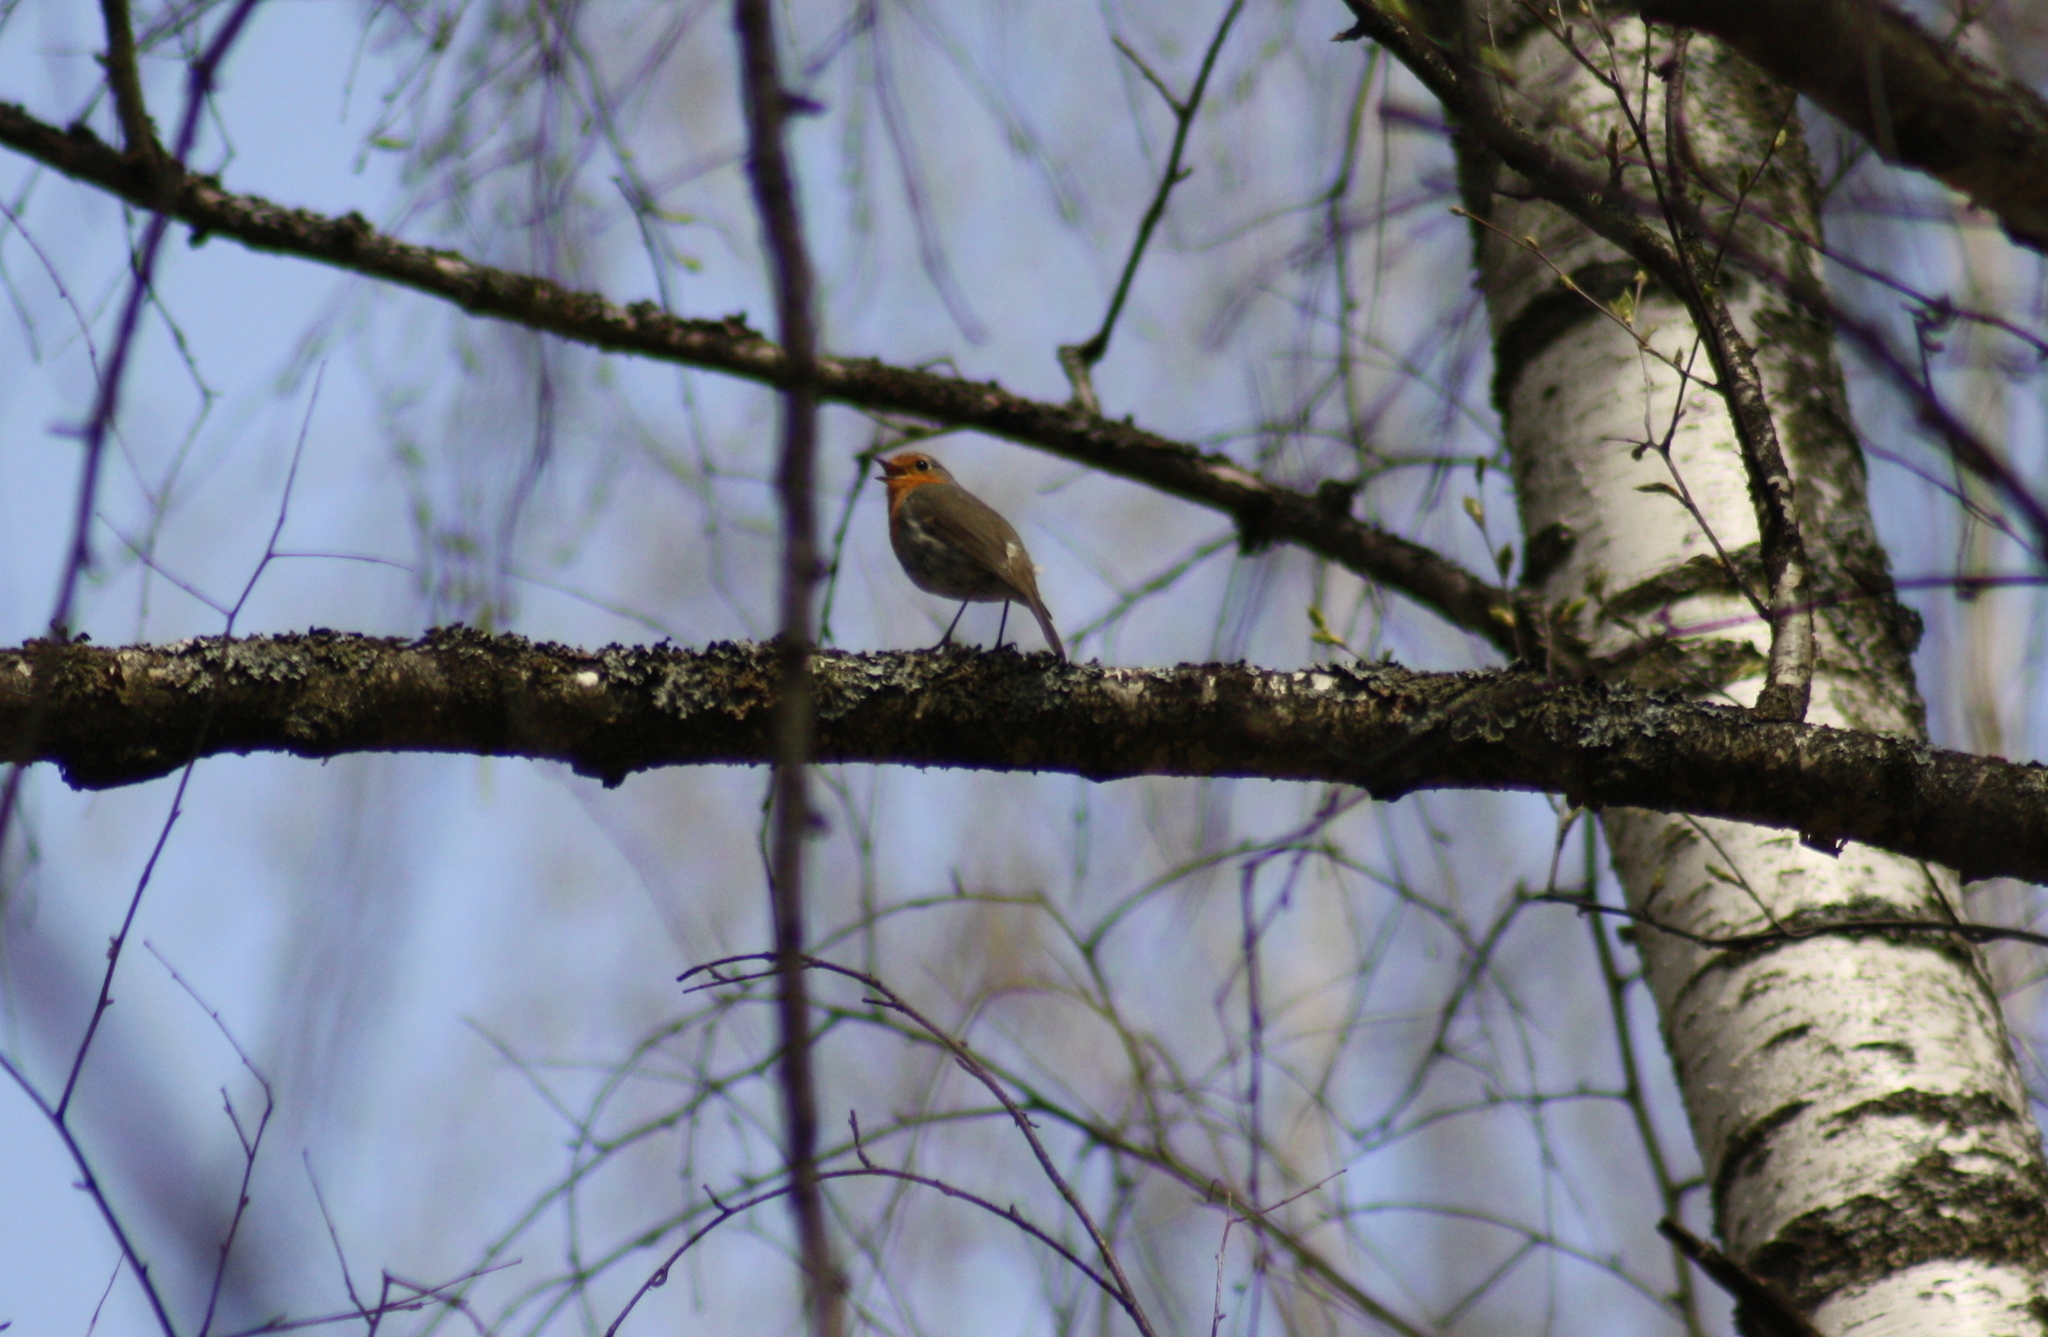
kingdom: Animalia
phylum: Chordata
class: Aves
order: Passeriformes
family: Muscicapidae
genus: Erithacus
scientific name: Erithacus rubecula
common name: European robin
